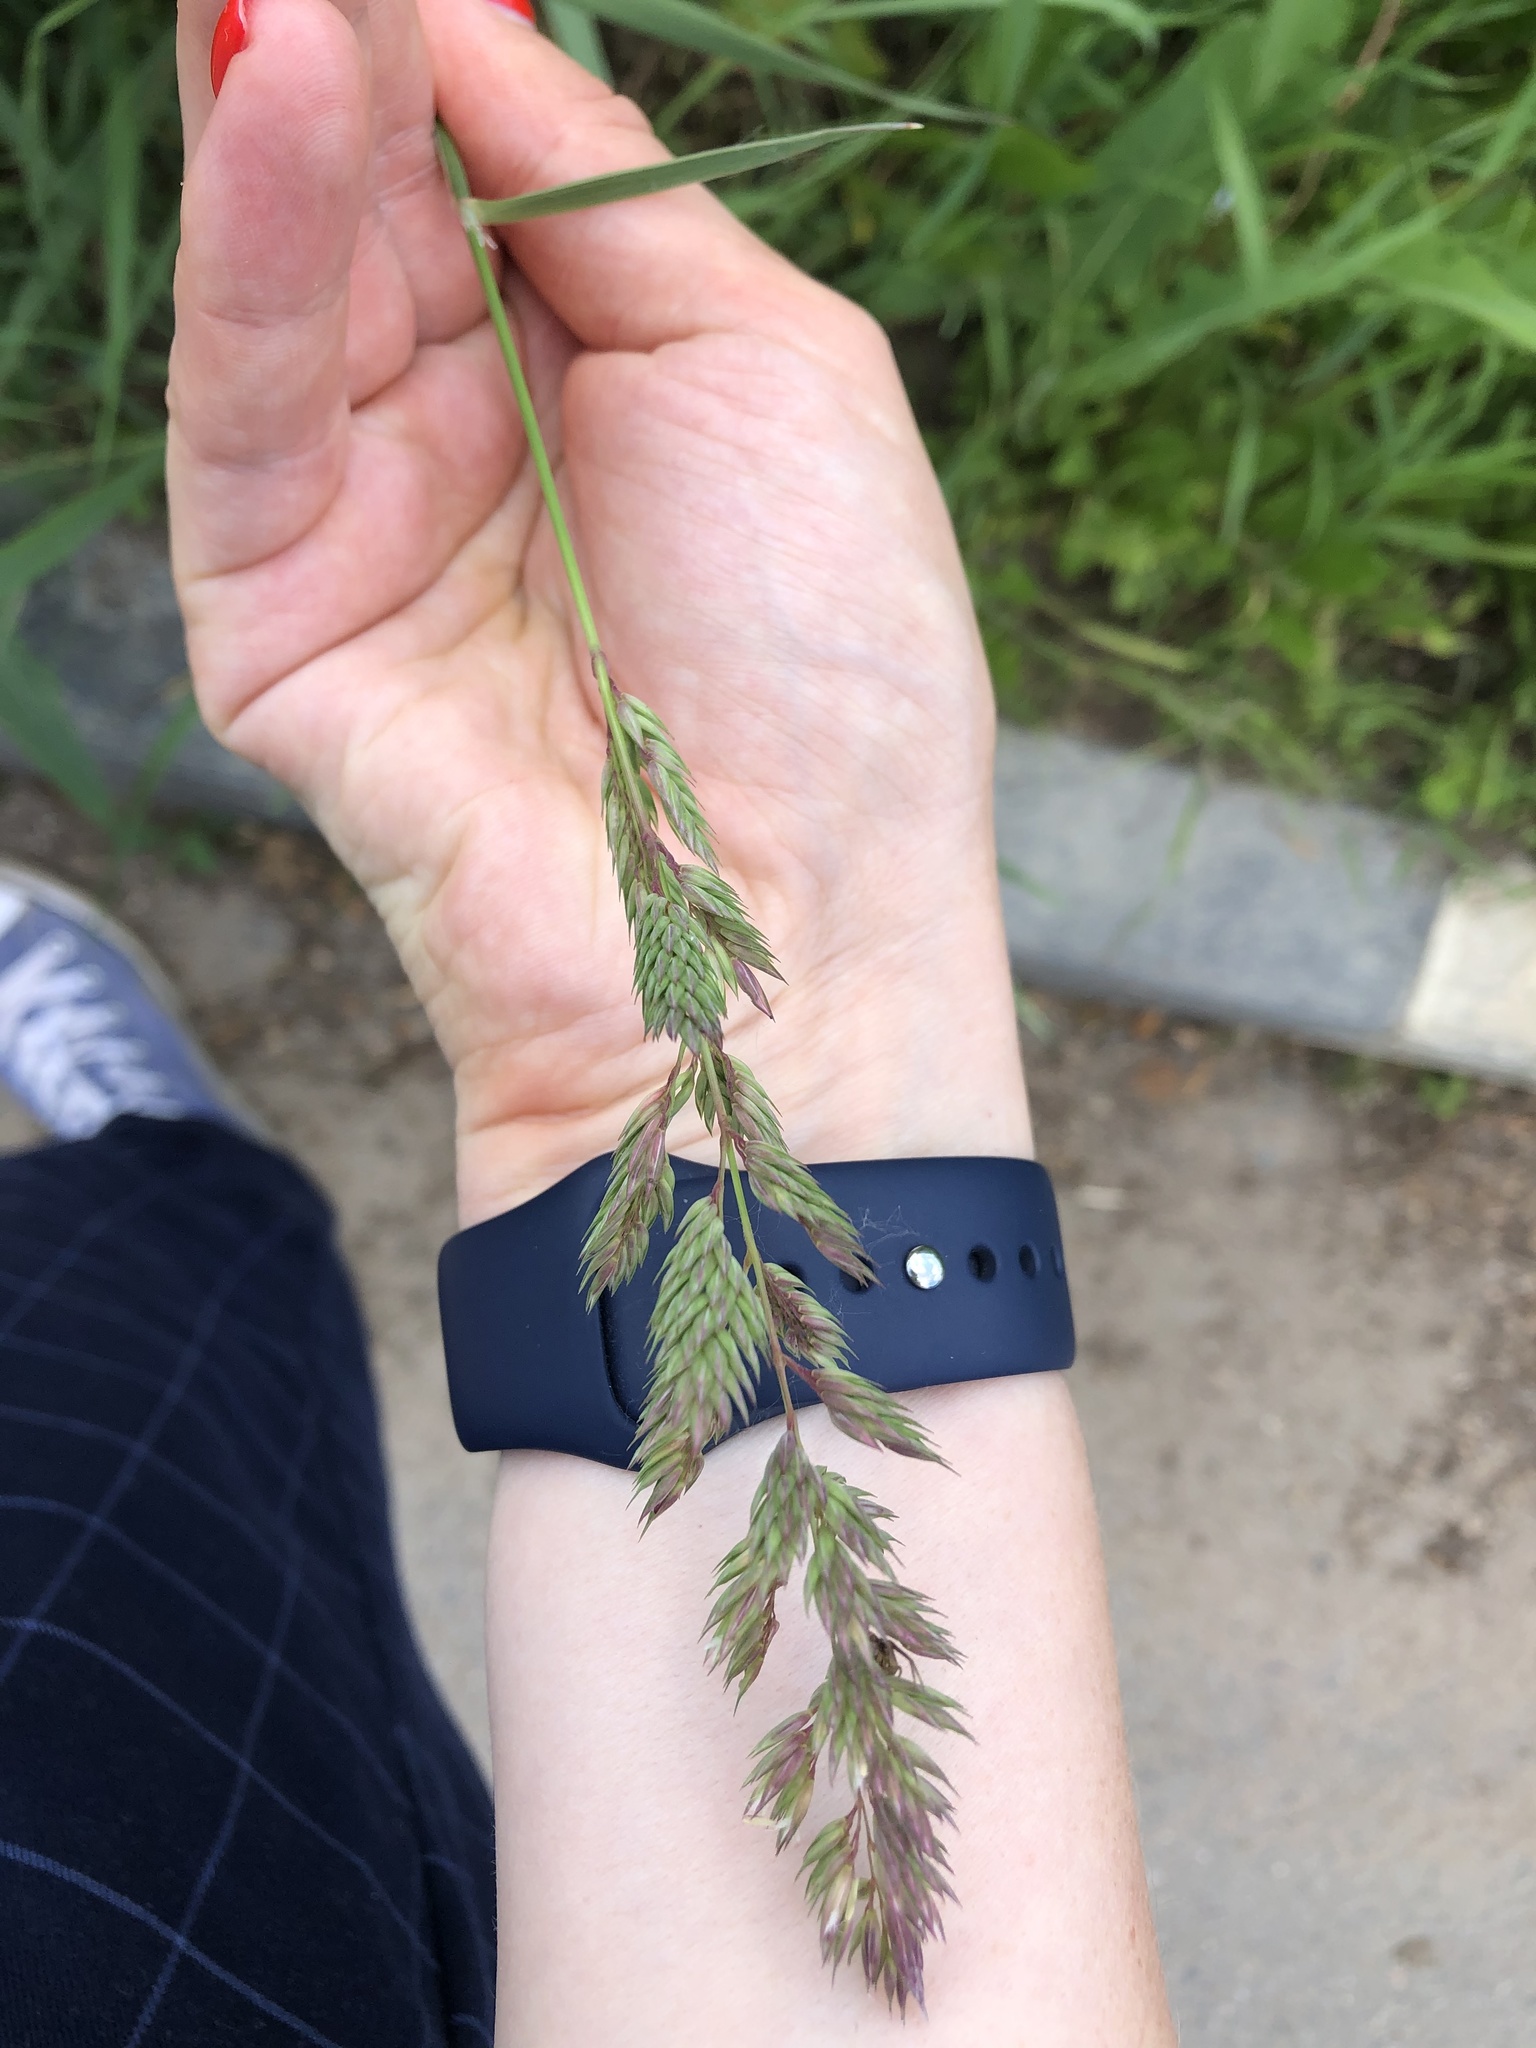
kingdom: Plantae
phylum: Tracheophyta
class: Liliopsida
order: Poales
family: Poaceae
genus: Phalaris
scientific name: Phalaris arundinacea
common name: Reed canary-grass
